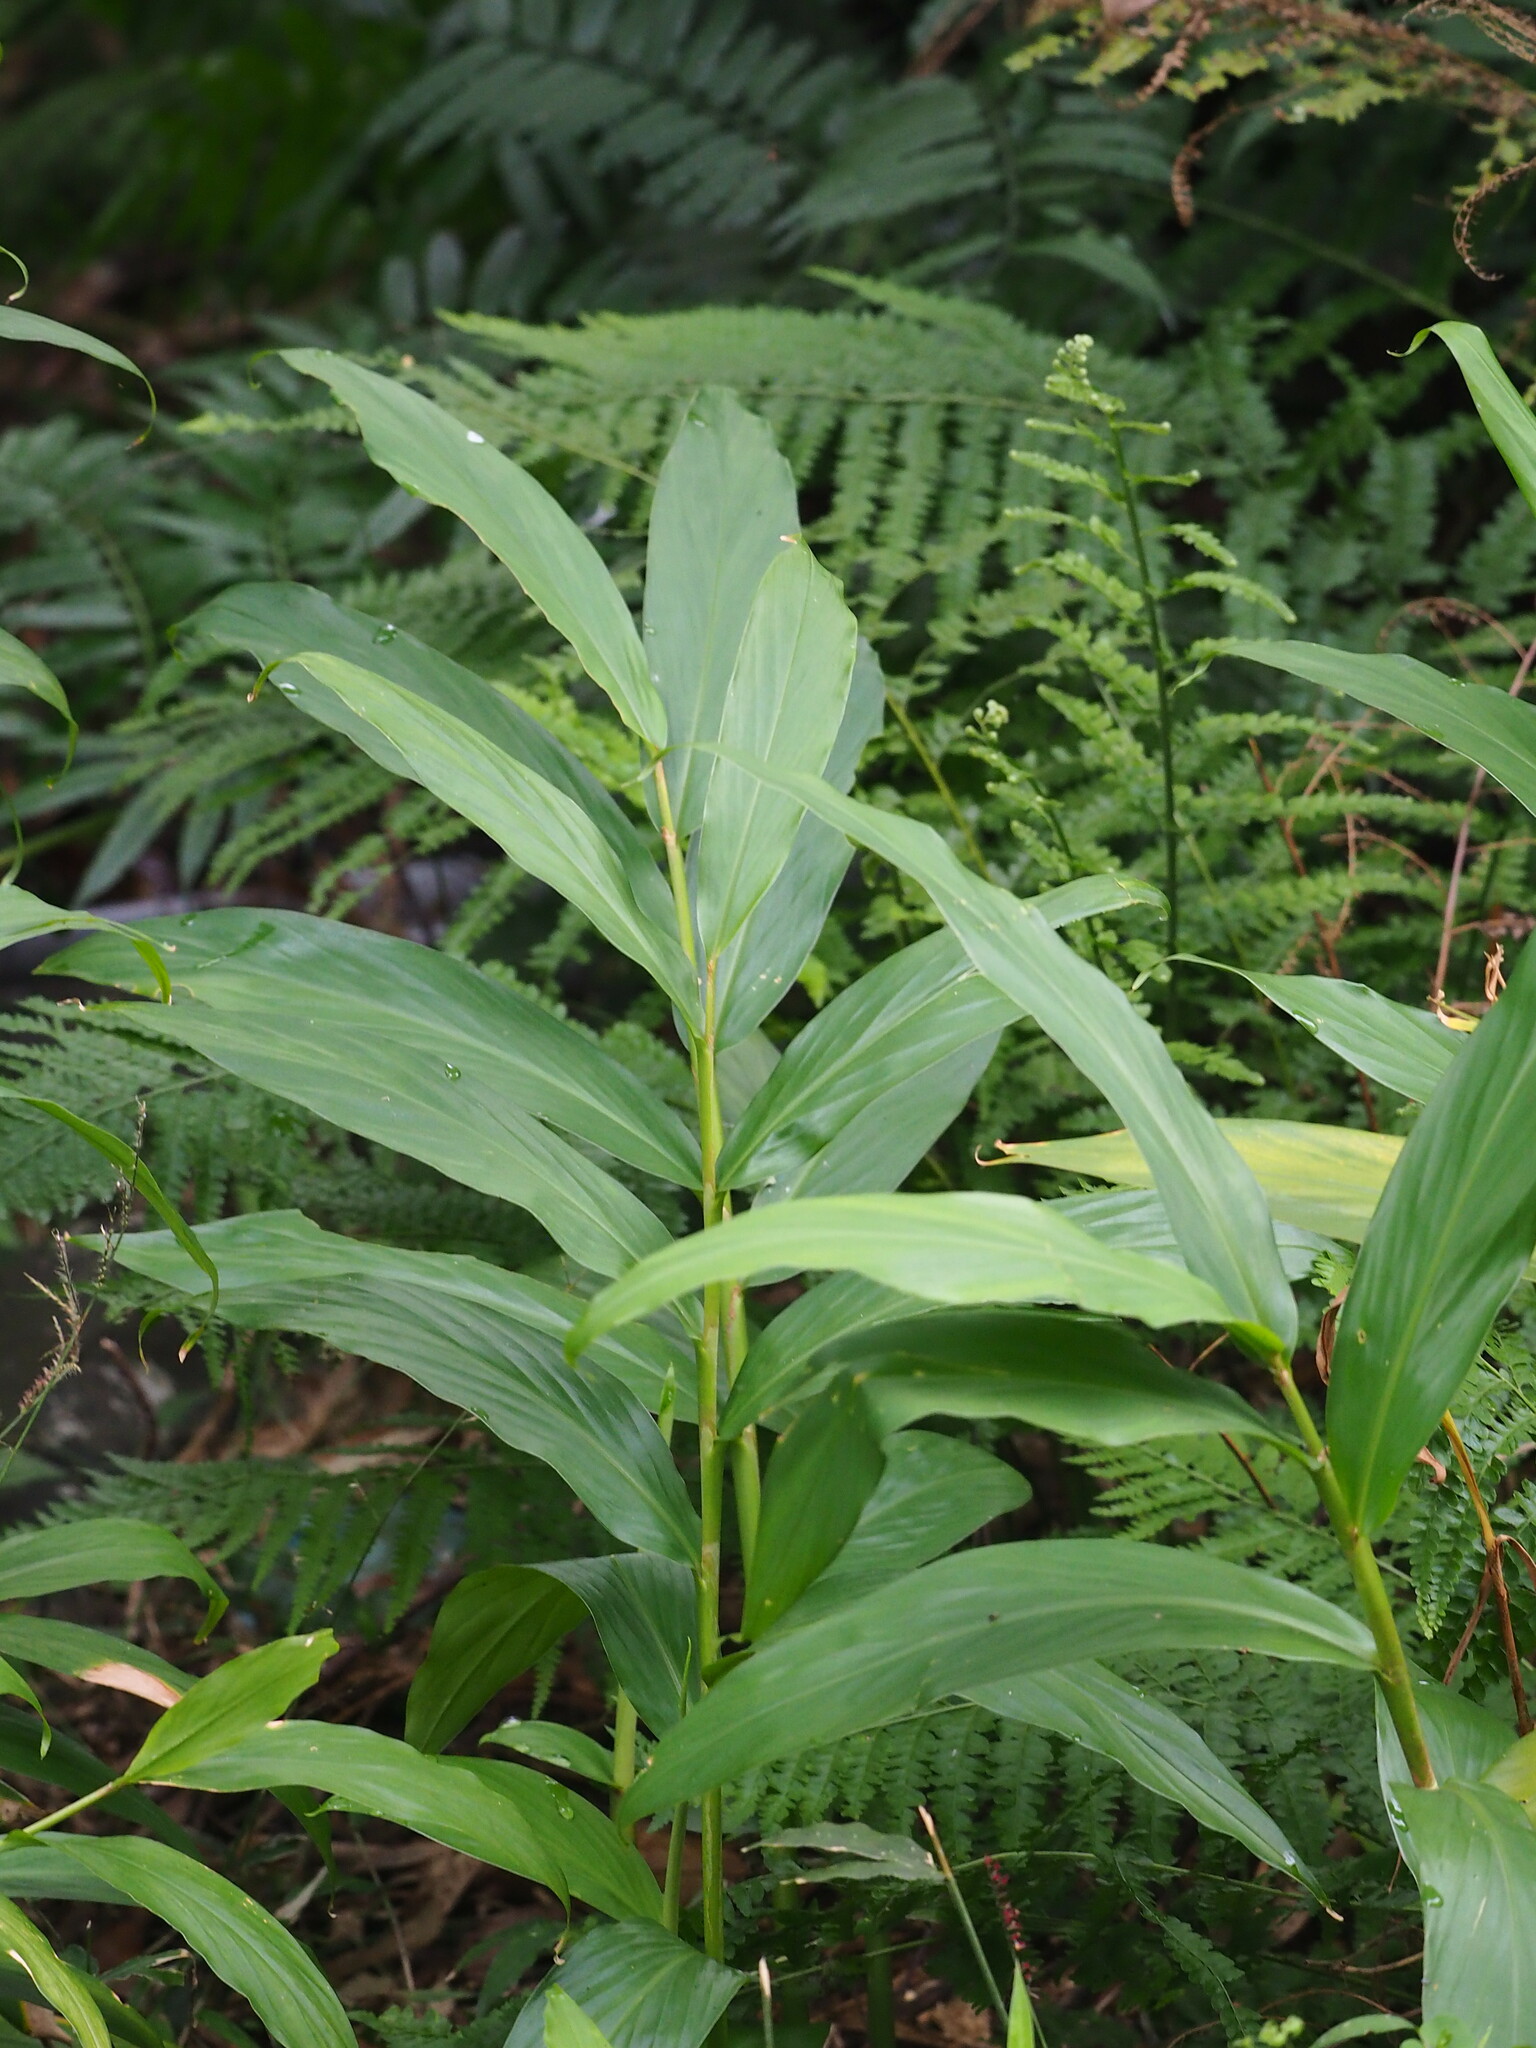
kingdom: Plantae
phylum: Tracheophyta
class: Liliopsida
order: Zingiberales
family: Zingiberaceae
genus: Hedychium
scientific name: Hedychium coronarium
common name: White garland-lily
